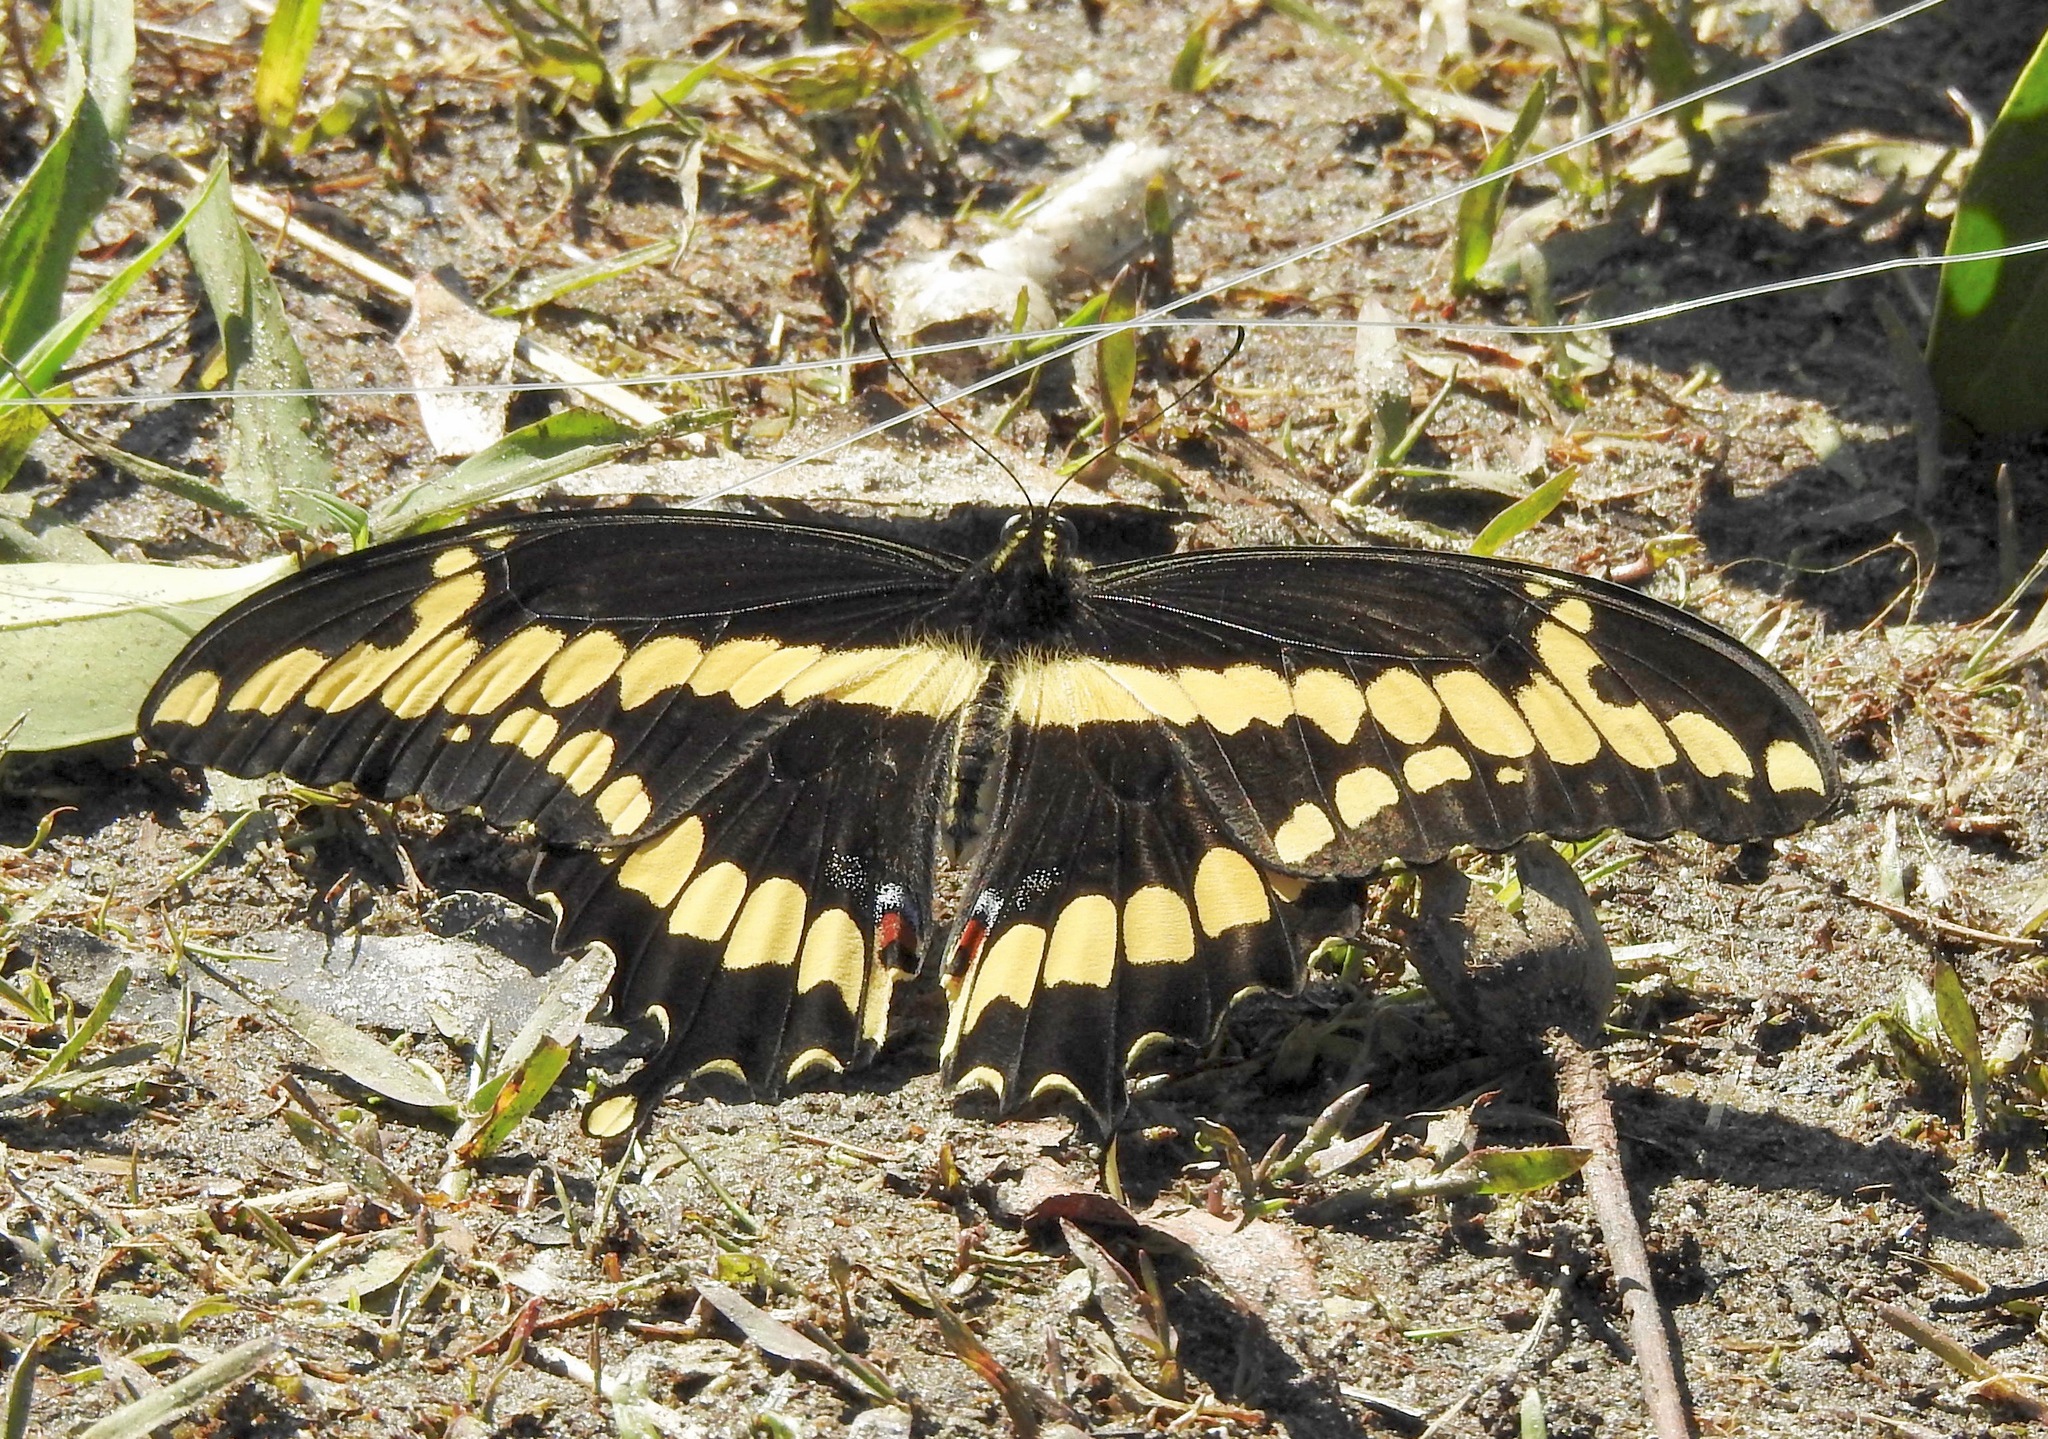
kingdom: Animalia
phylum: Arthropoda
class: Insecta
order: Lepidoptera
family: Papilionidae
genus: Papilio
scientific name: Papilio cresphontes
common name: Giant swallowtail
